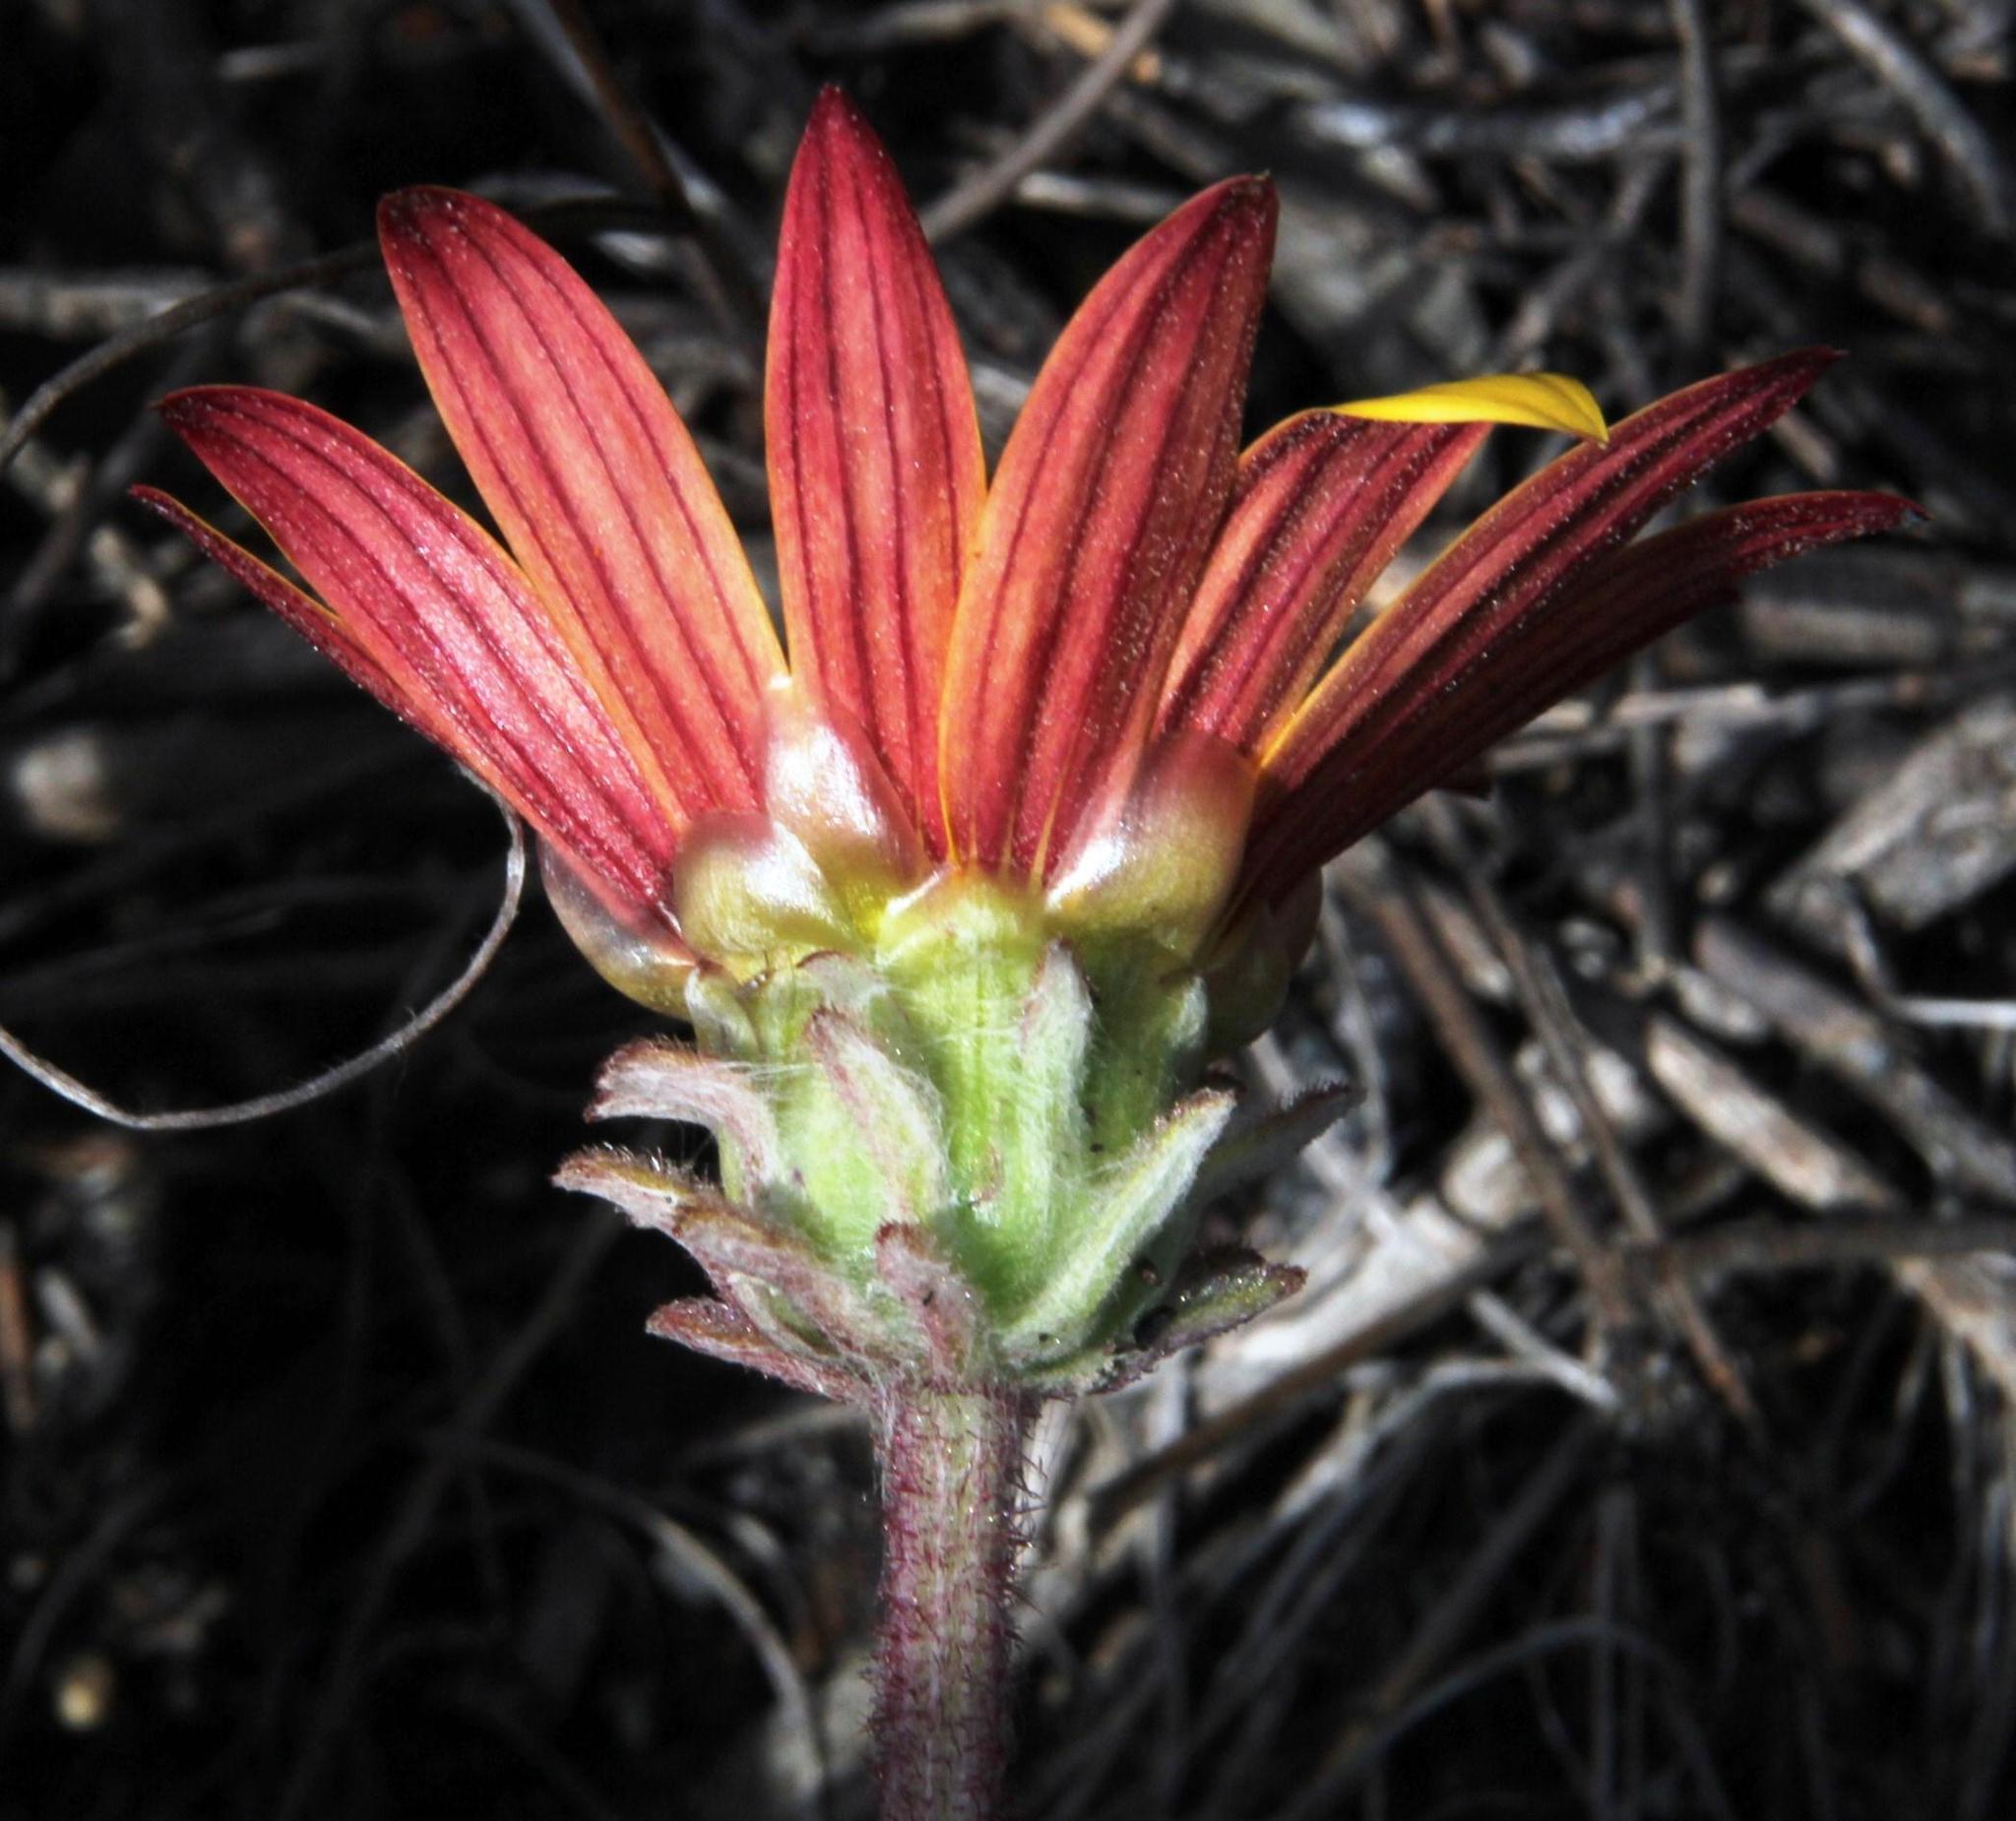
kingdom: Plantae
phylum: Tracheophyta
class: Magnoliopsida
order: Asterales
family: Asteraceae
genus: Arctotis
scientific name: Arctotis angustifolia
